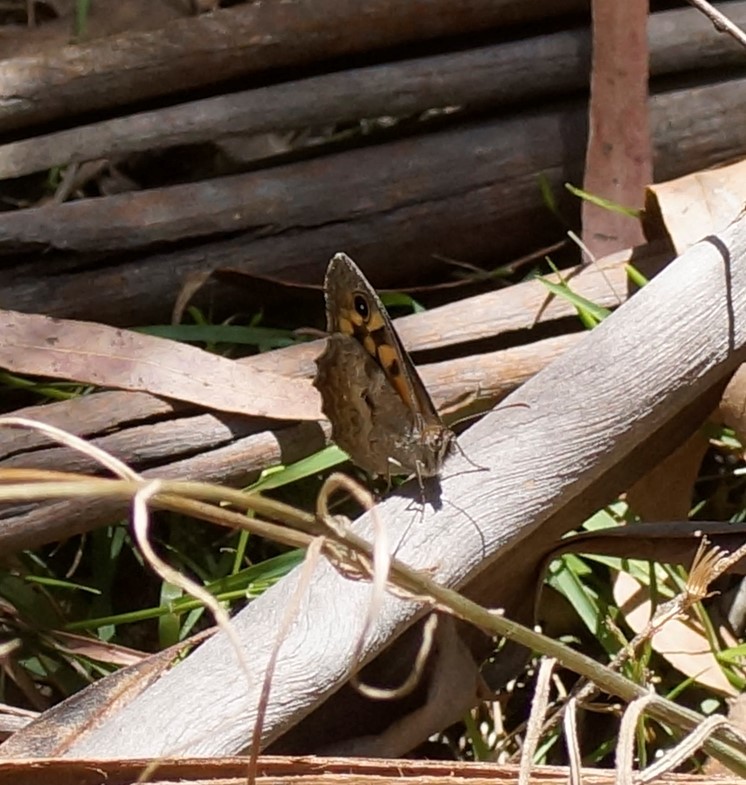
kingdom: Animalia
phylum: Arthropoda
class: Insecta
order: Lepidoptera
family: Nymphalidae
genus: Geitoneura
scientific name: Geitoneura klugii
